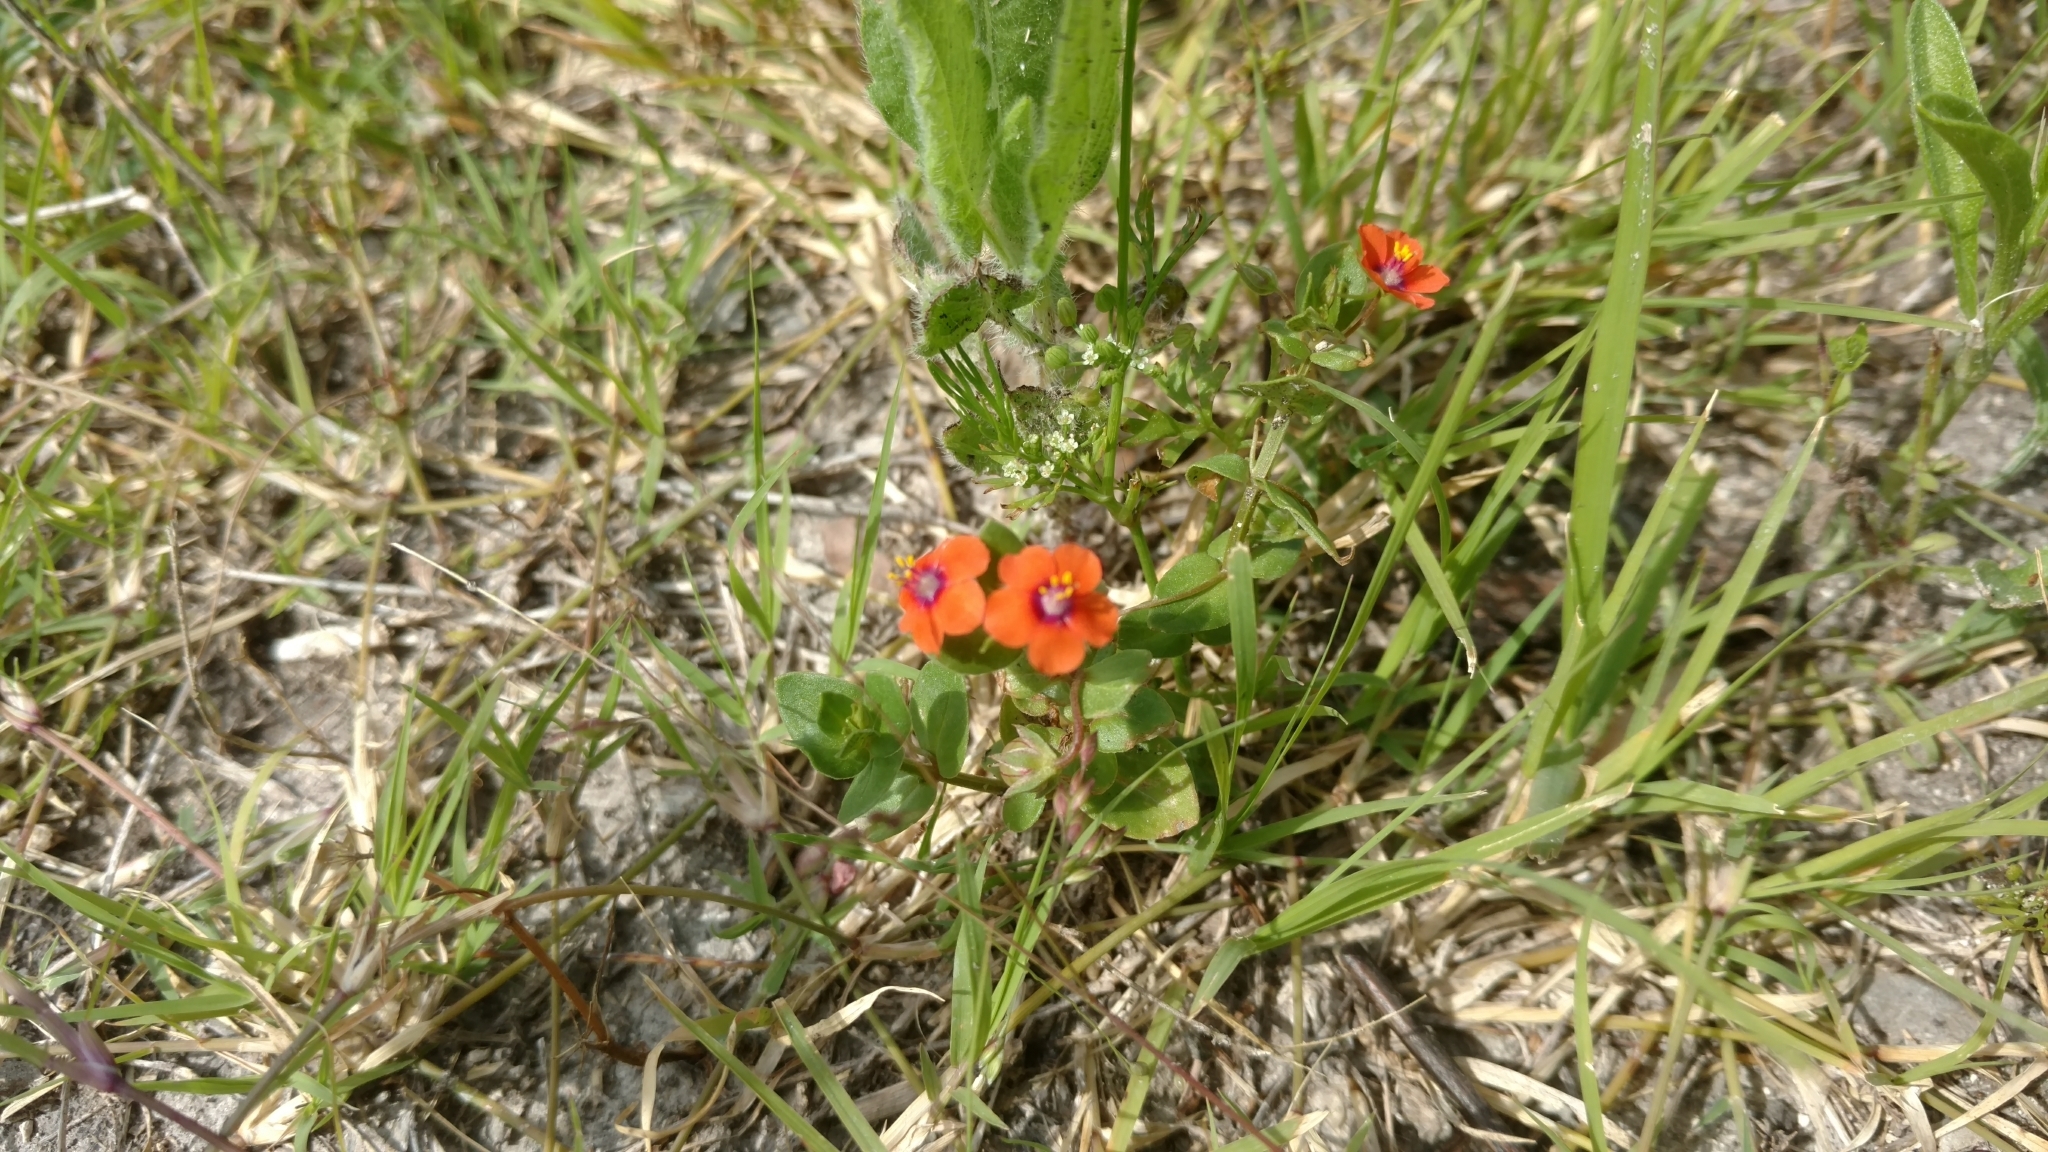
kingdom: Plantae
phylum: Tracheophyta
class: Magnoliopsida
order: Ericales
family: Primulaceae
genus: Lysimachia
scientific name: Lysimachia arvensis
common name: Scarlet pimpernel
